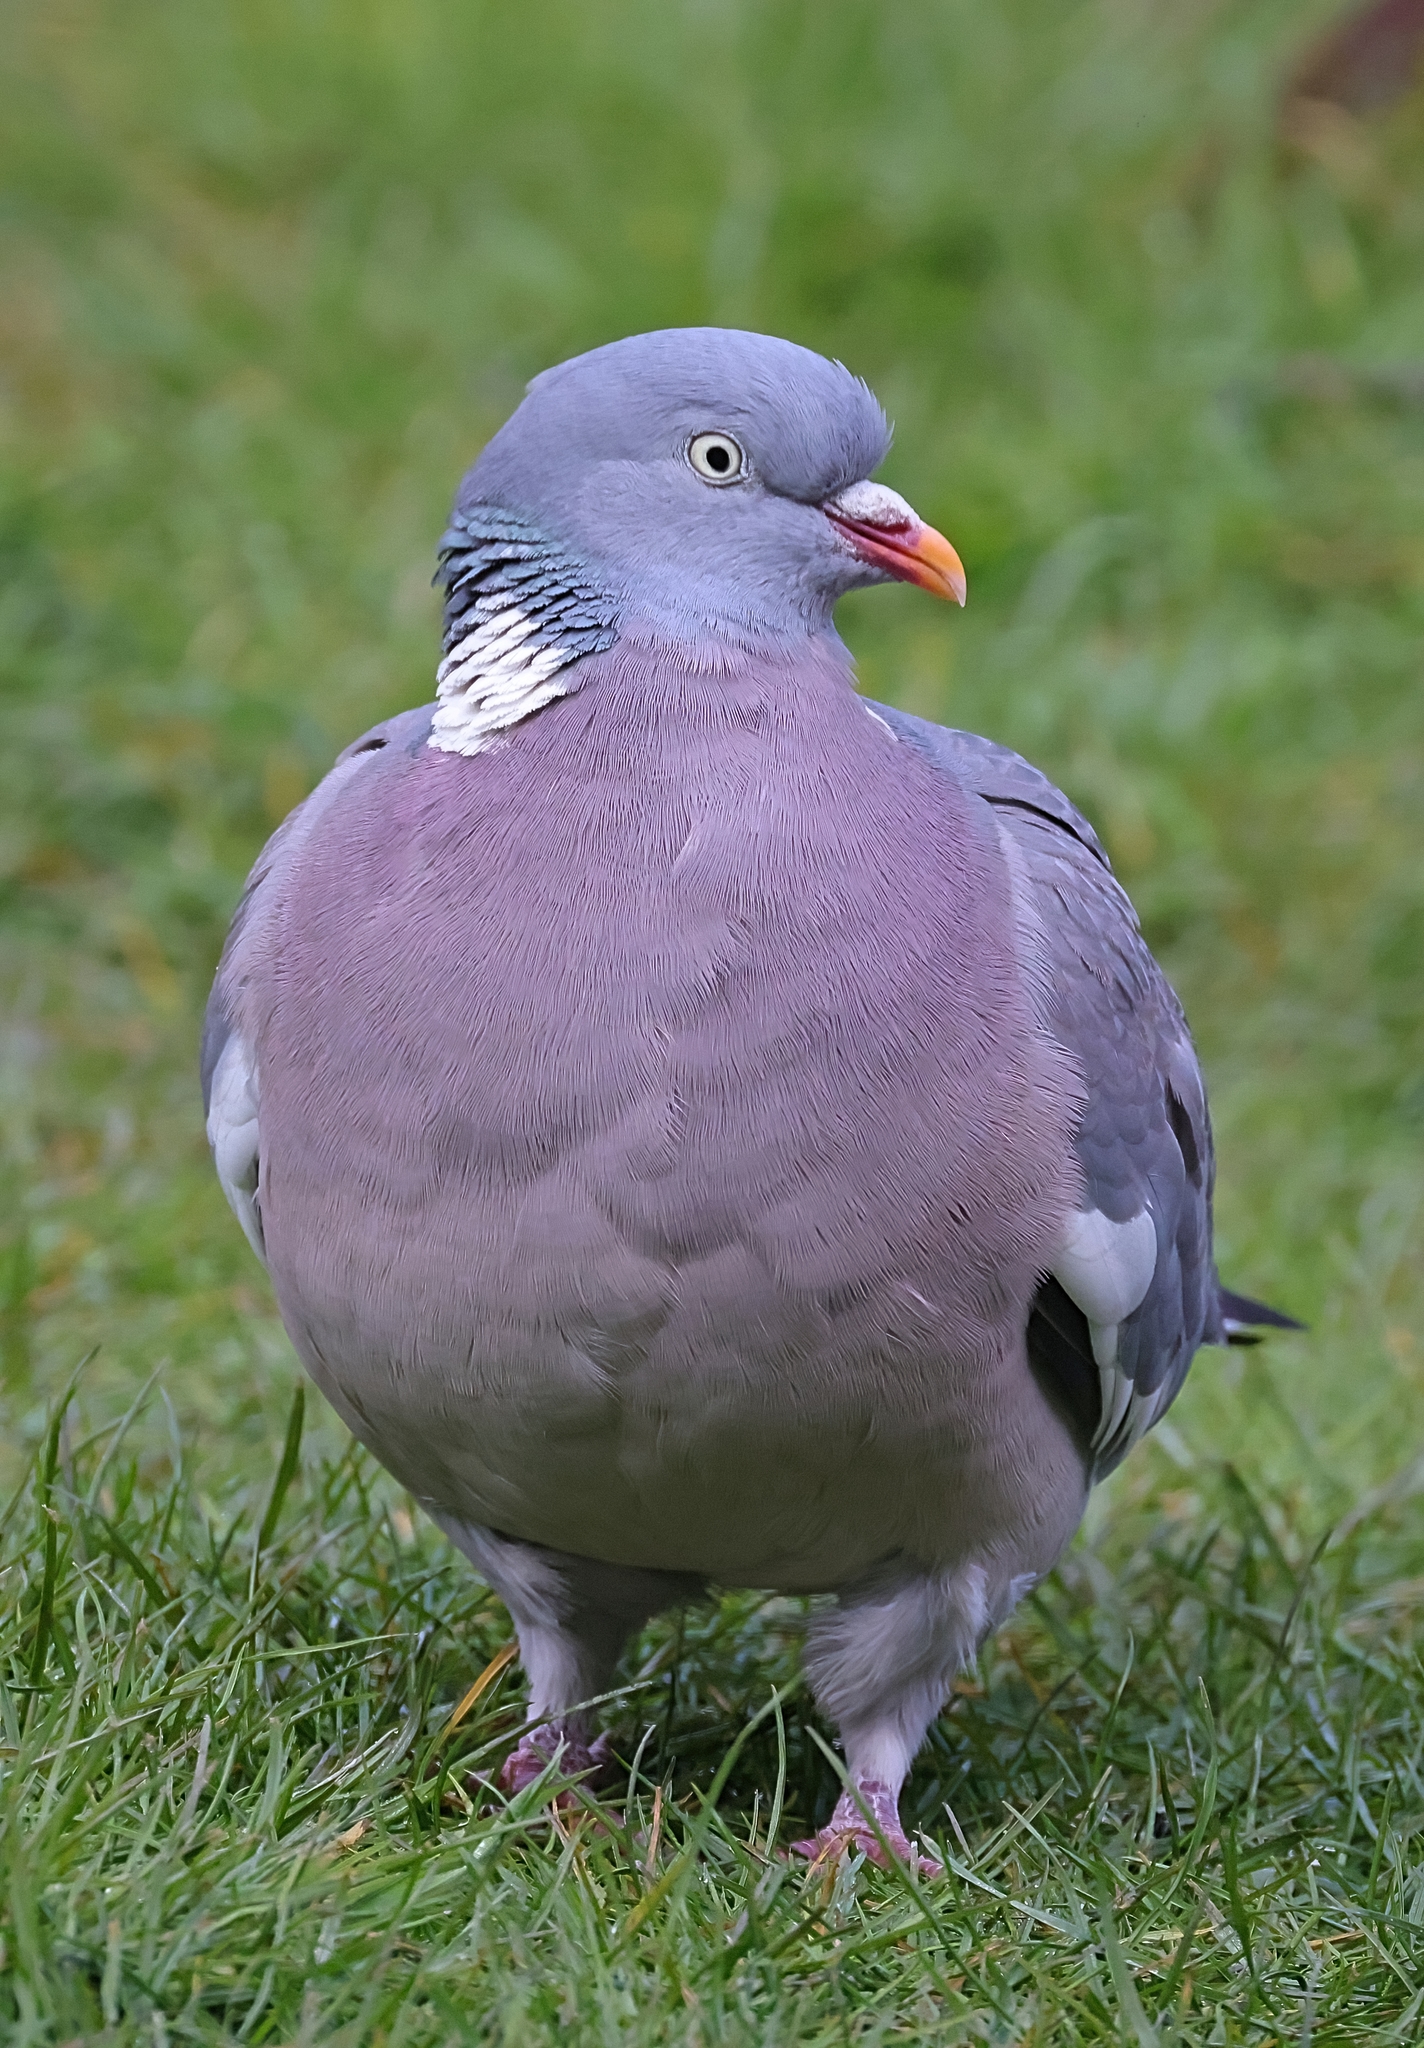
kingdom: Animalia
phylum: Chordata
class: Aves
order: Columbiformes
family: Columbidae
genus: Columba
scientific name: Columba palumbus
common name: Common wood pigeon
